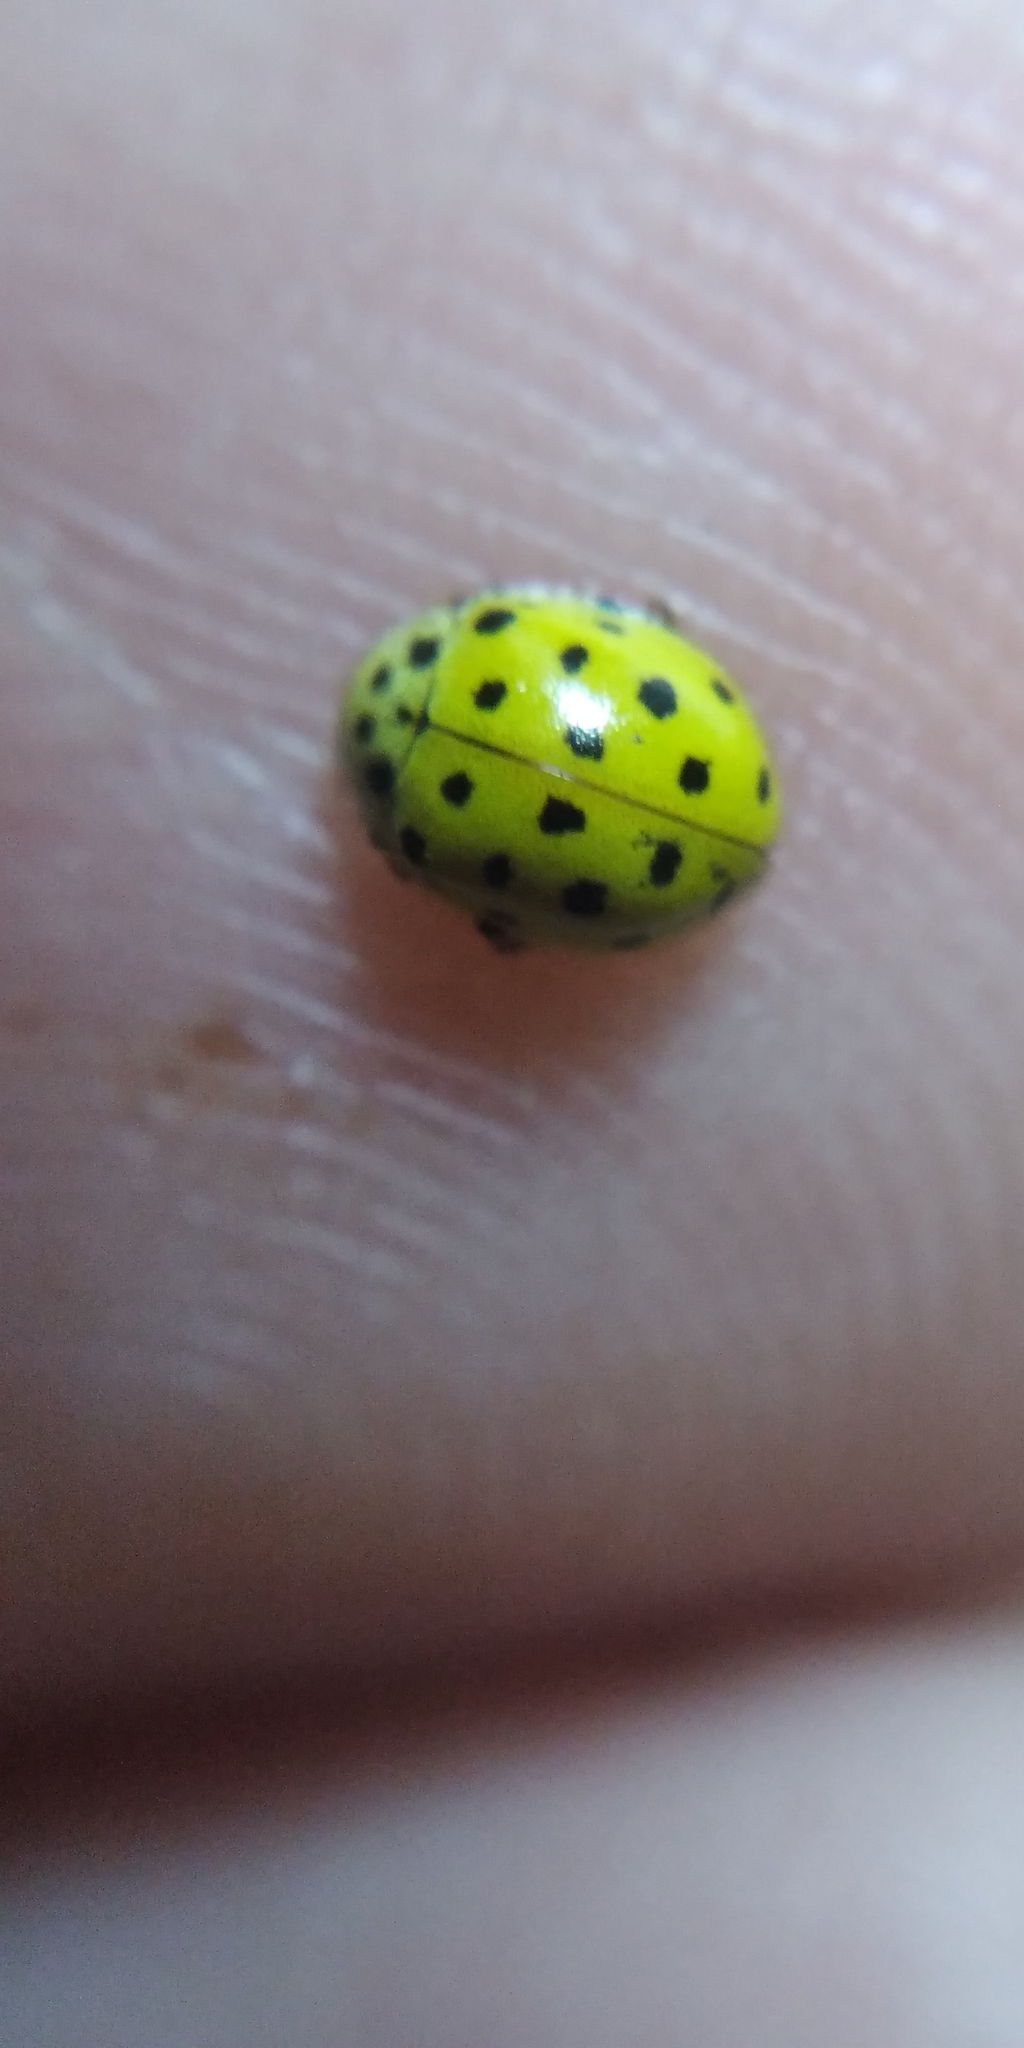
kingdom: Animalia
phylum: Arthropoda
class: Insecta
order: Coleoptera
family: Coccinellidae
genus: Psyllobora
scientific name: Psyllobora vigintiduopunctata
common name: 22-spot ladybird
